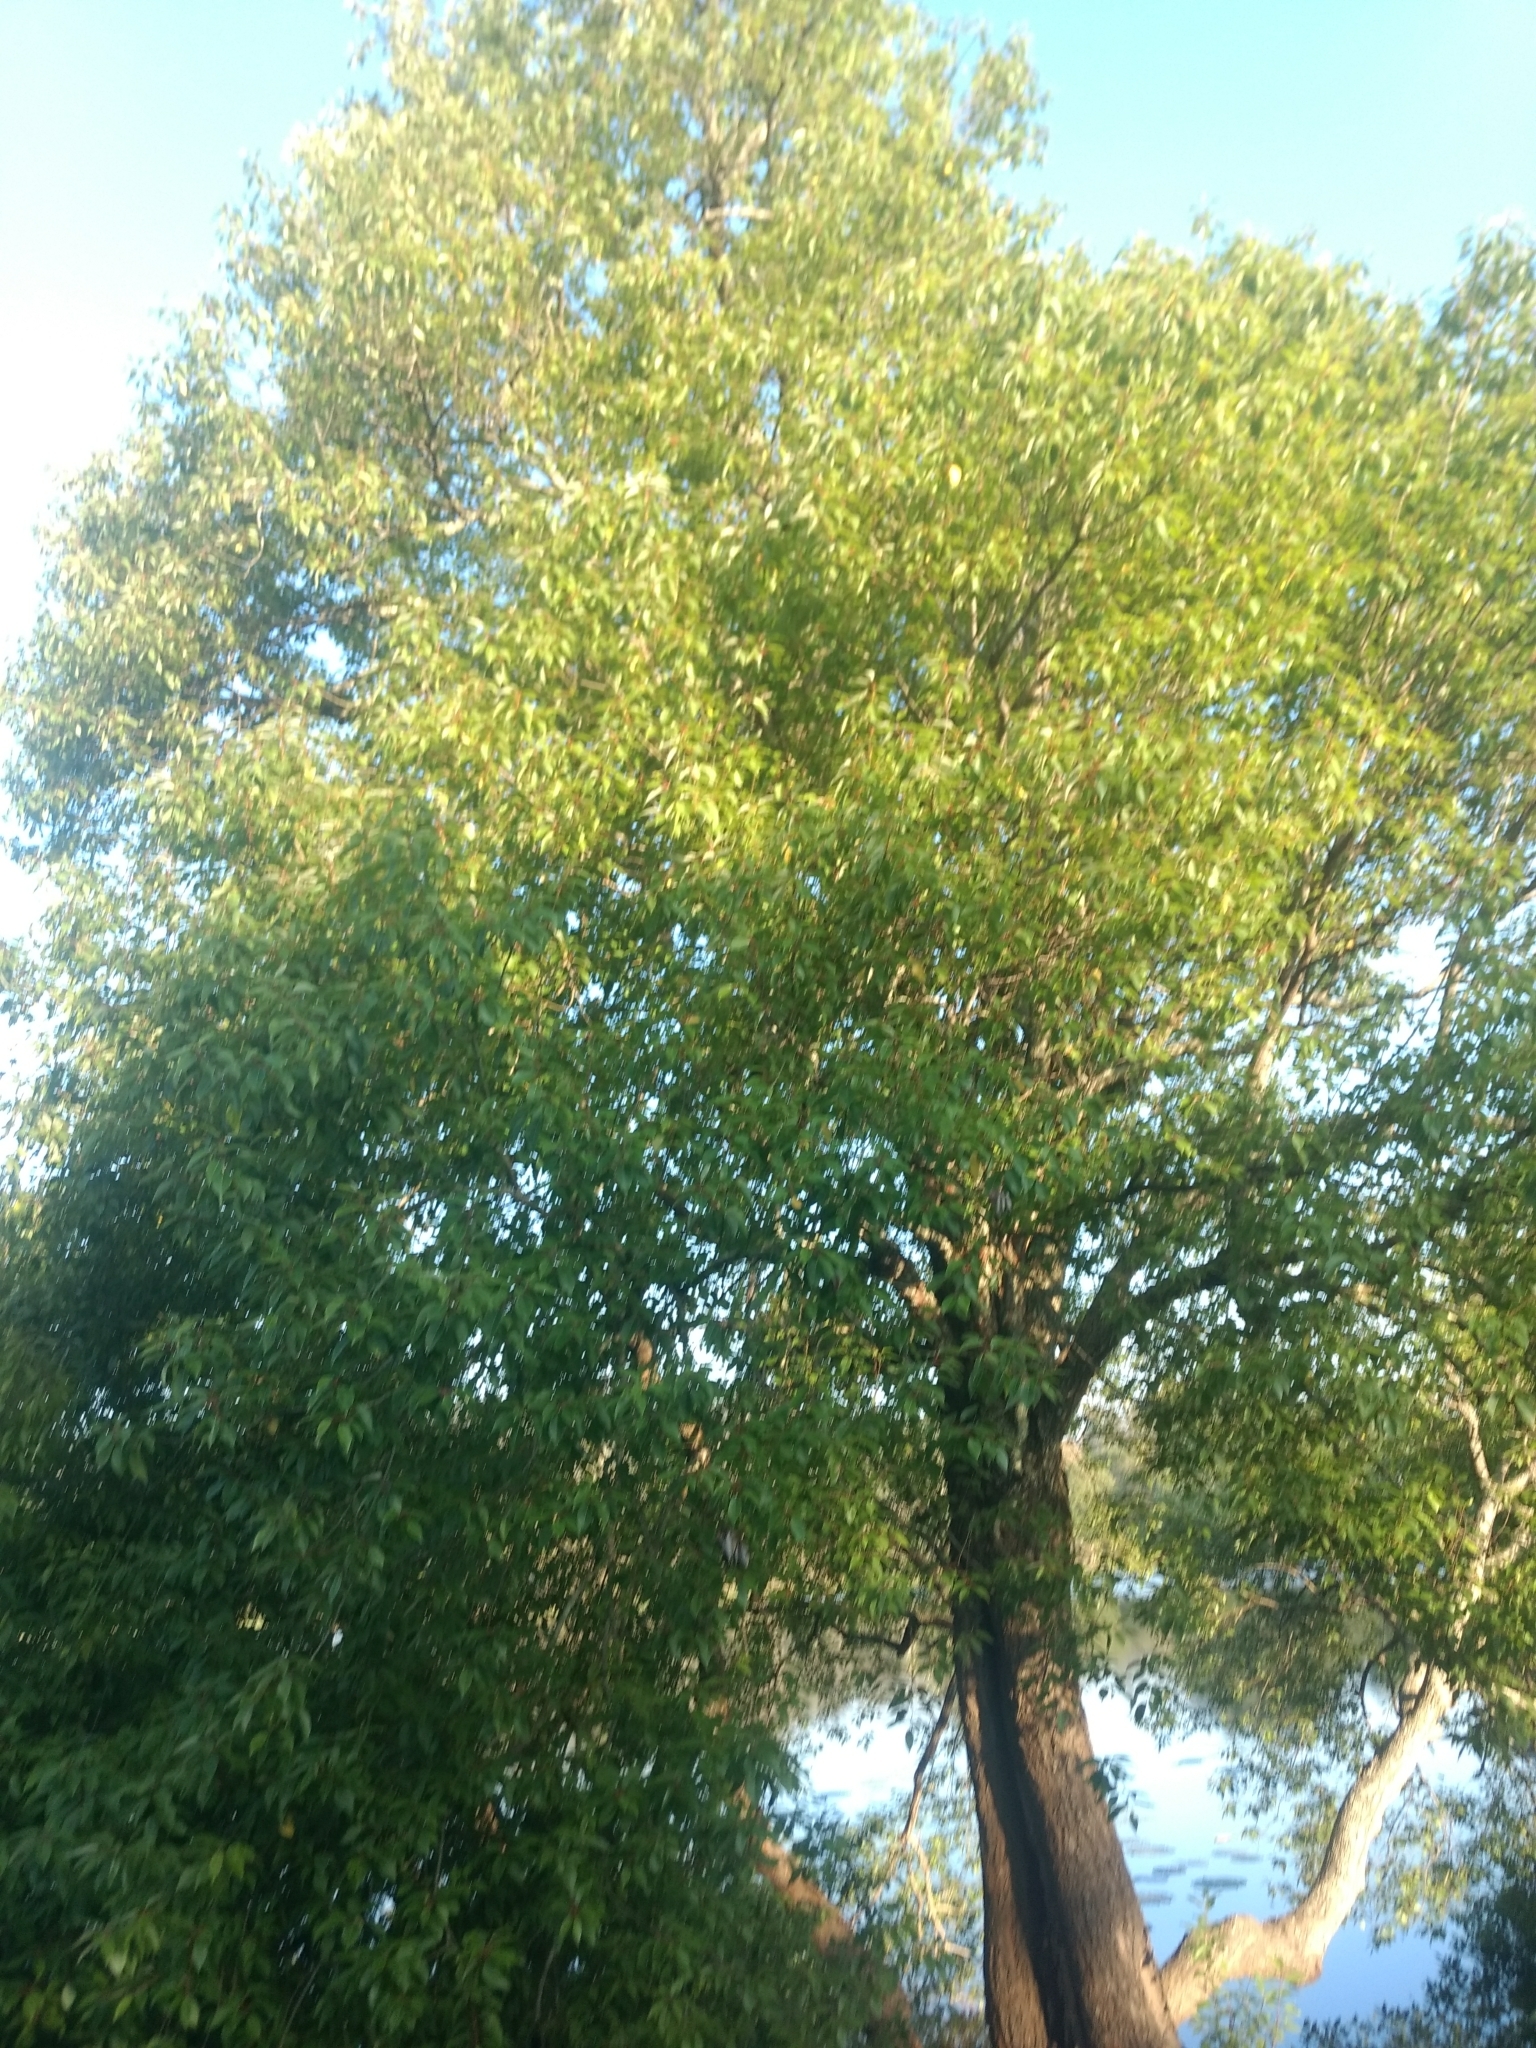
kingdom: Plantae
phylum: Tracheophyta
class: Magnoliopsida
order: Malpighiales
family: Salicaceae
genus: Salix
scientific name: Salix tetrasperma
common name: Indian willow
